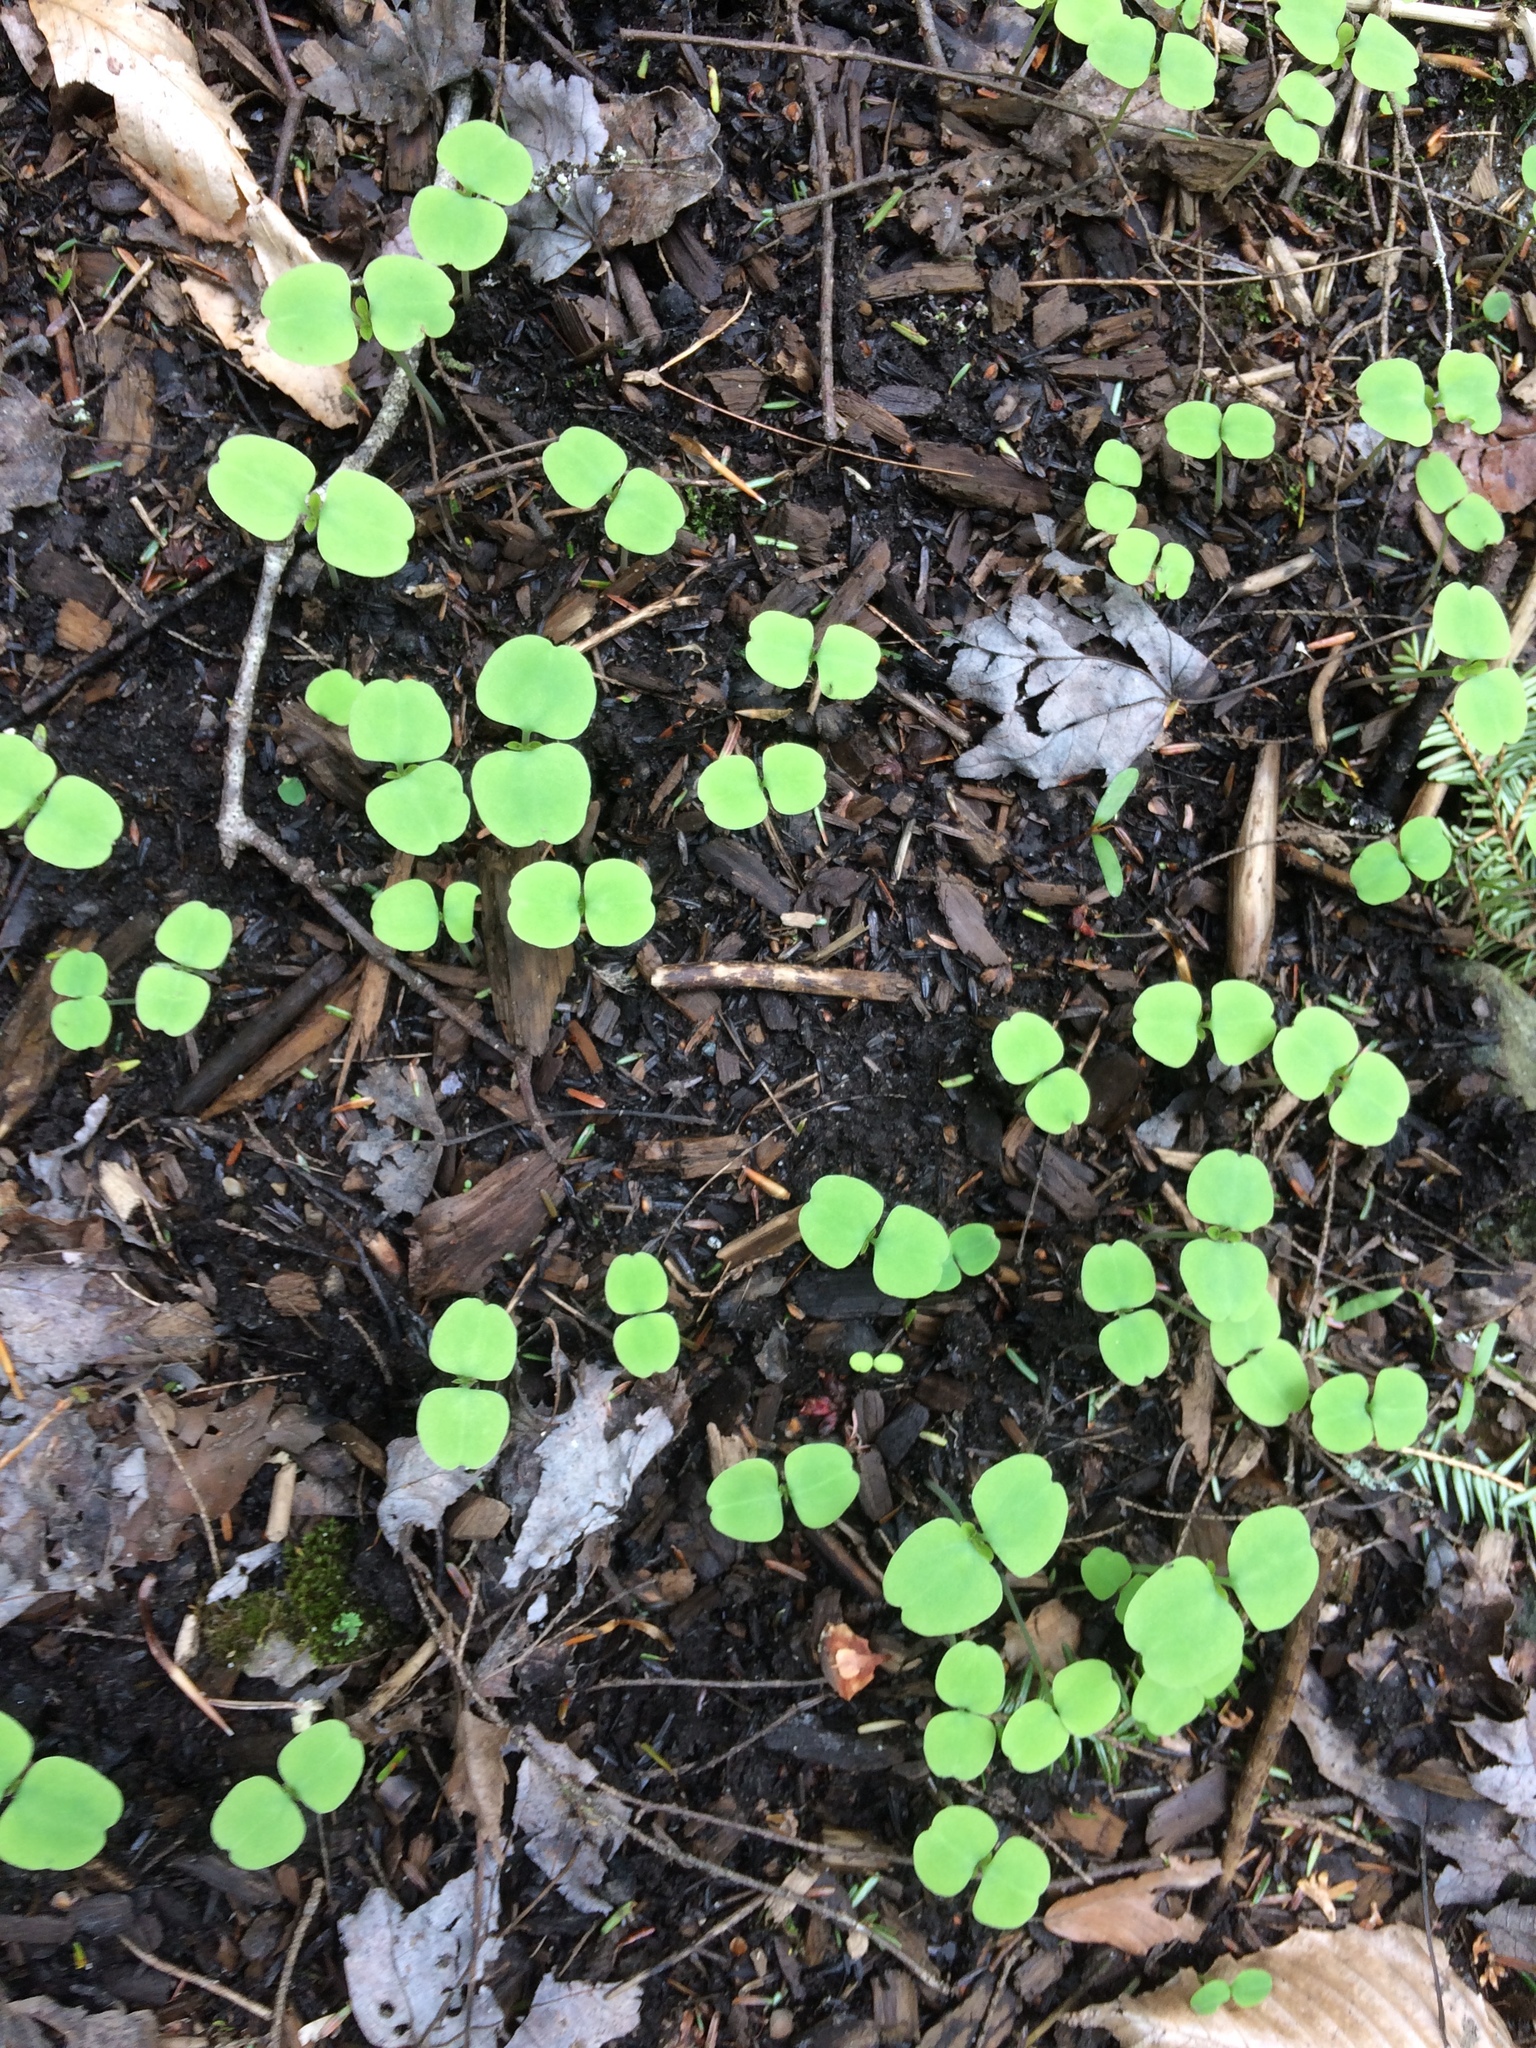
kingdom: Plantae
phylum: Tracheophyta
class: Magnoliopsida
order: Ericales
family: Balsaminaceae
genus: Impatiens
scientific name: Impatiens capensis
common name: Orange balsam
